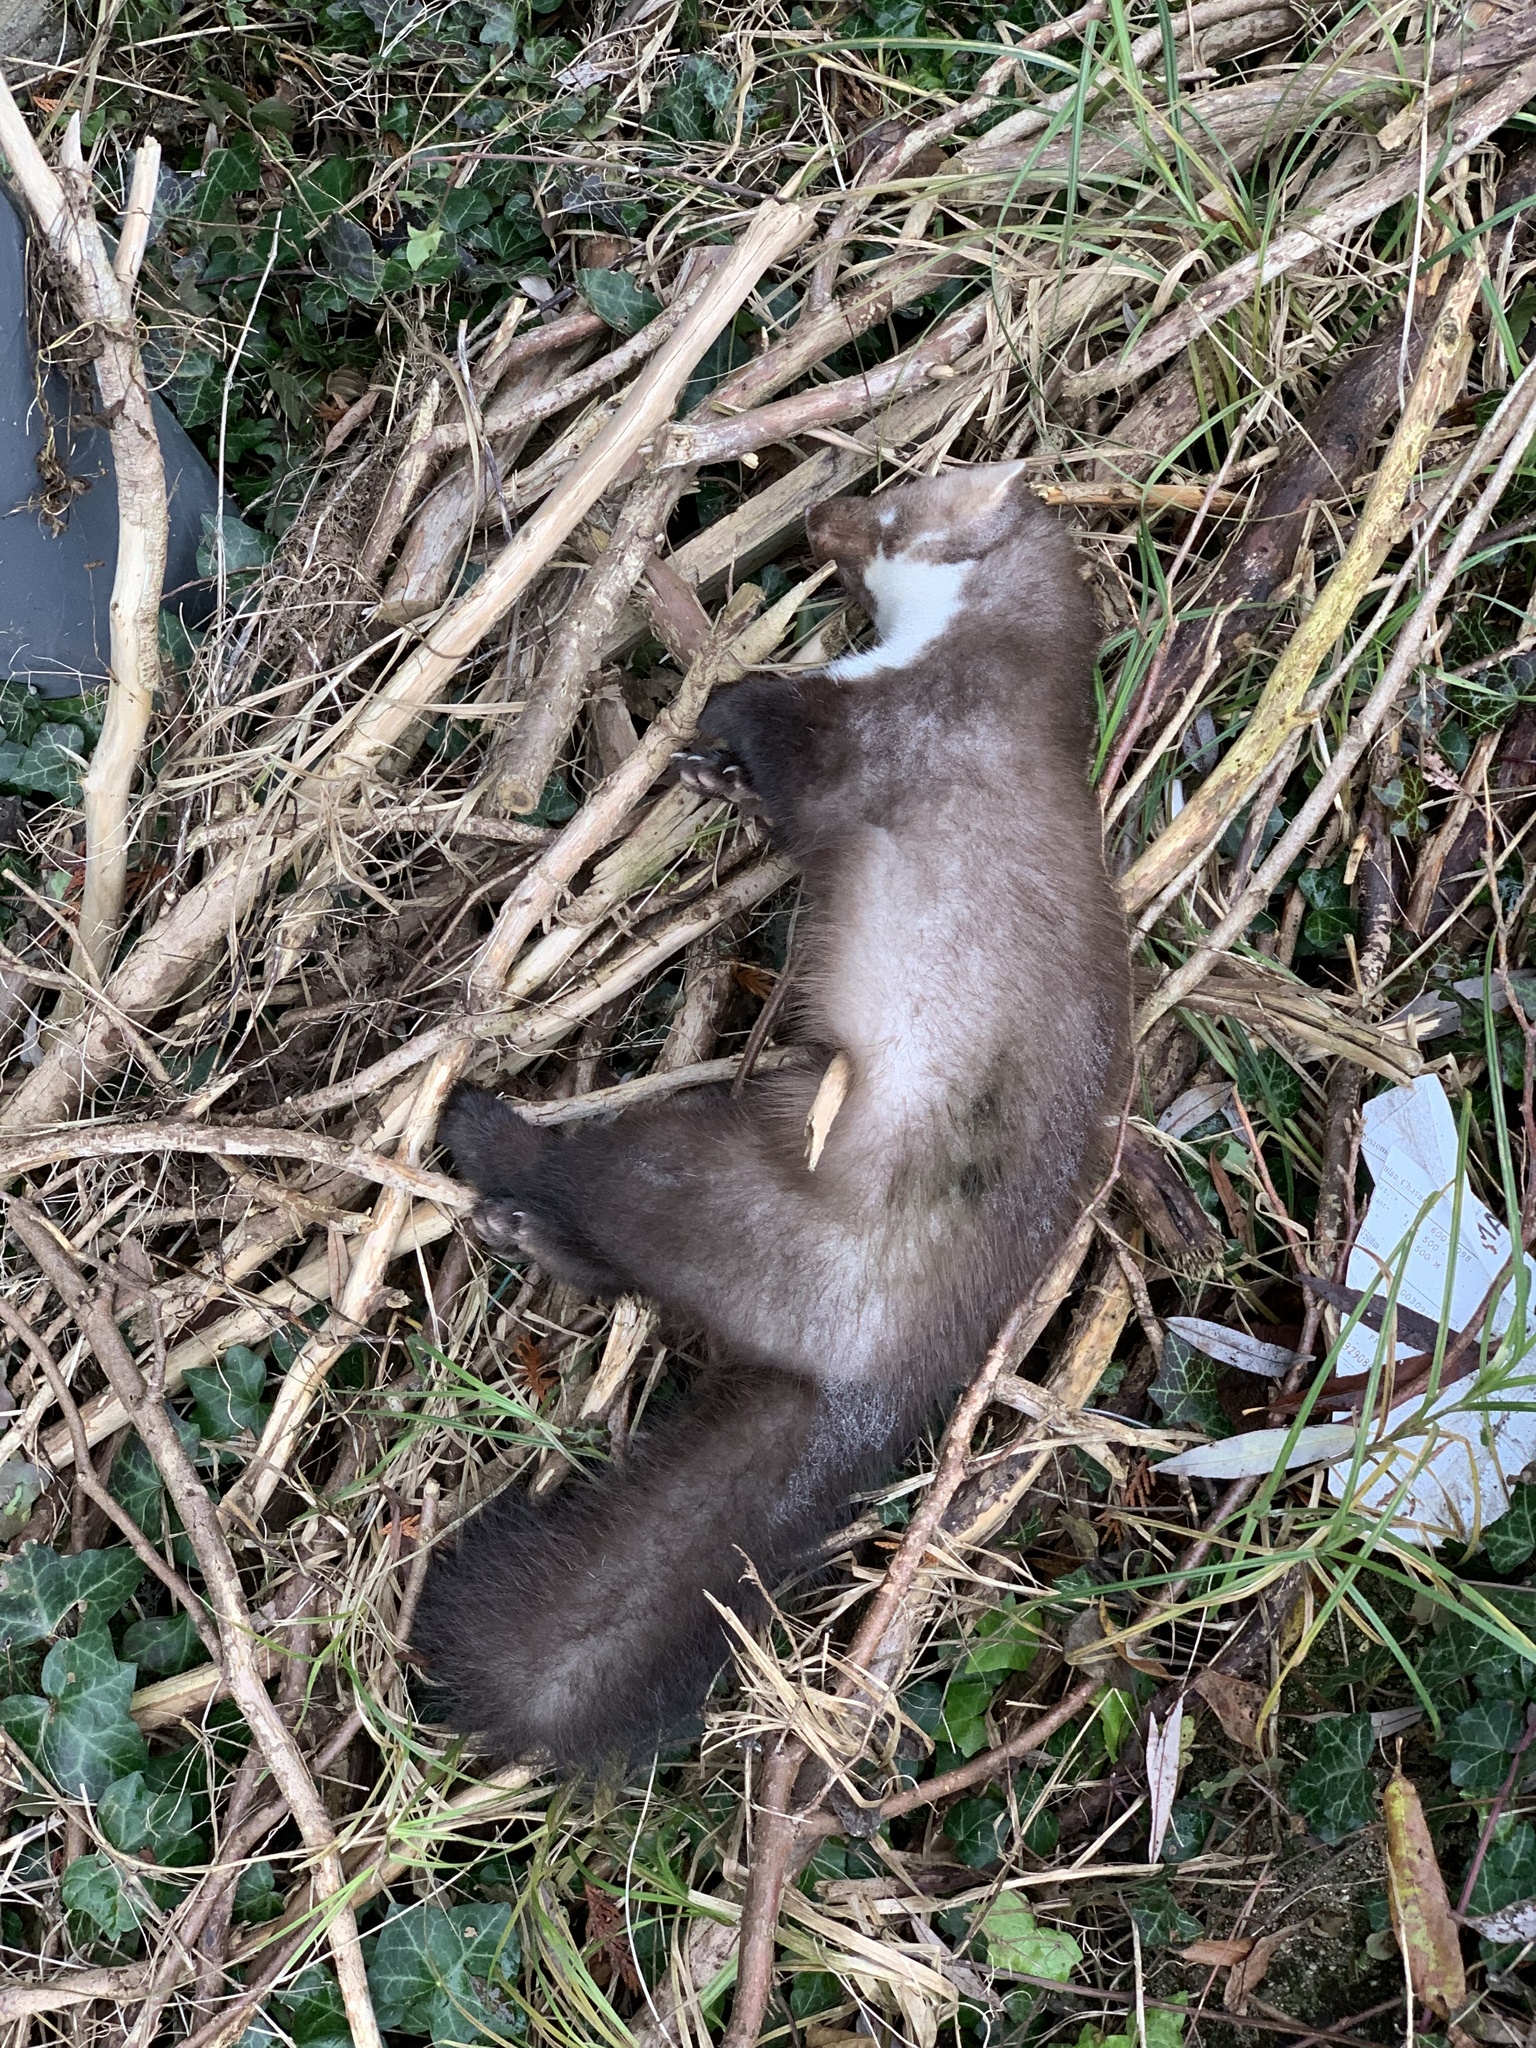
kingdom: Animalia
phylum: Chordata
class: Mammalia
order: Carnivora
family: Mustelidae
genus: Martes
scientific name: Martes foina
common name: Beech marten
